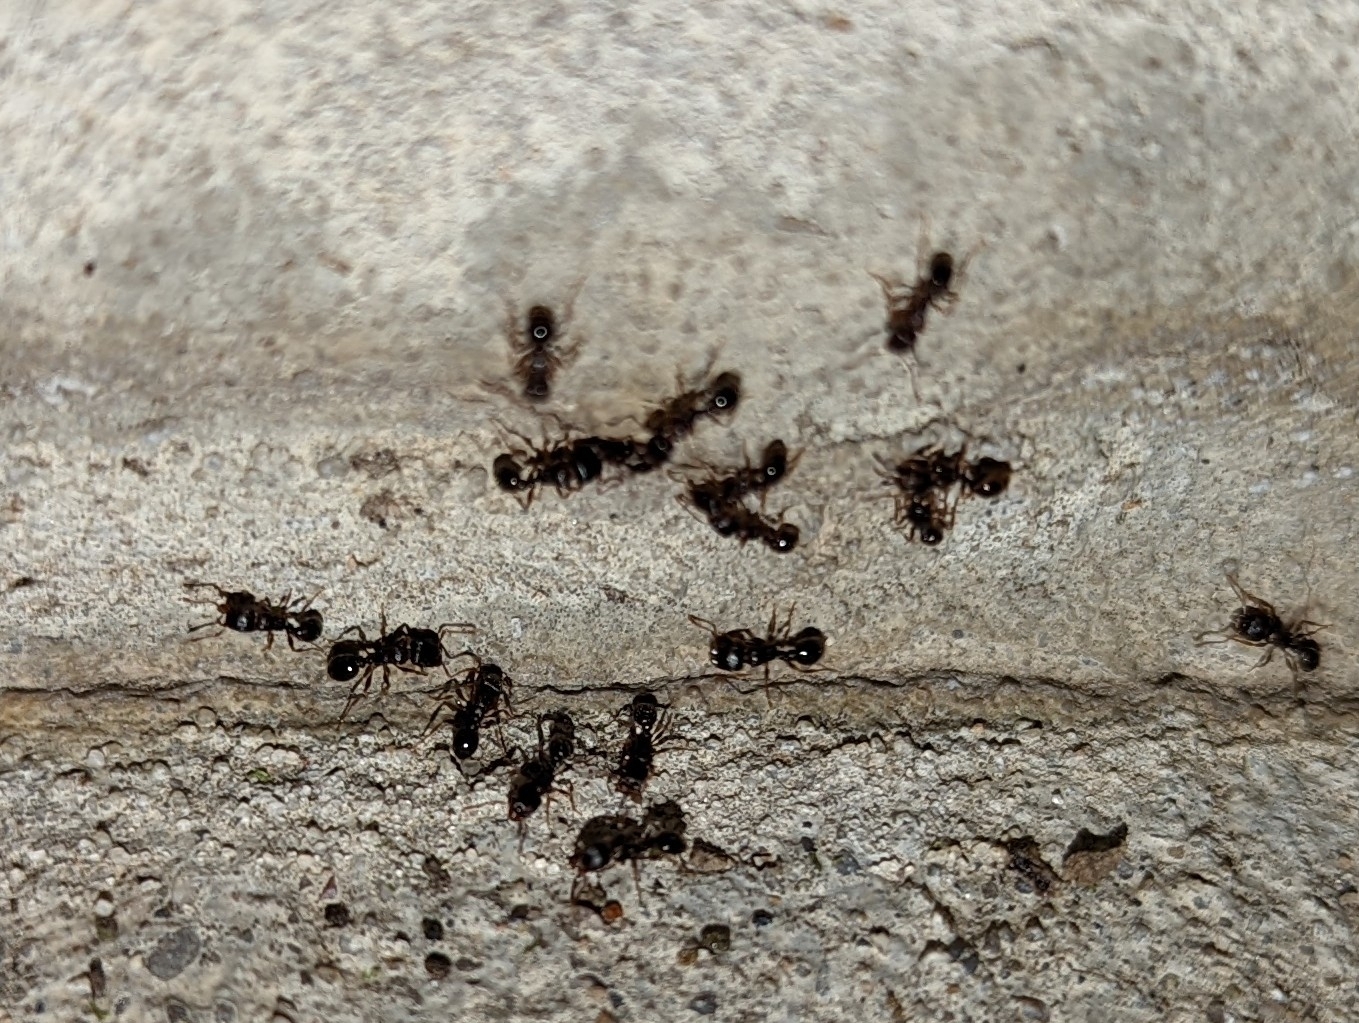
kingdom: Animalia
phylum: Arthropoda
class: Insecta
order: Hymenoptera
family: Formicidae
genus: Tetramorium
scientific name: Tetramorium immigrans
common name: Pavement ant
